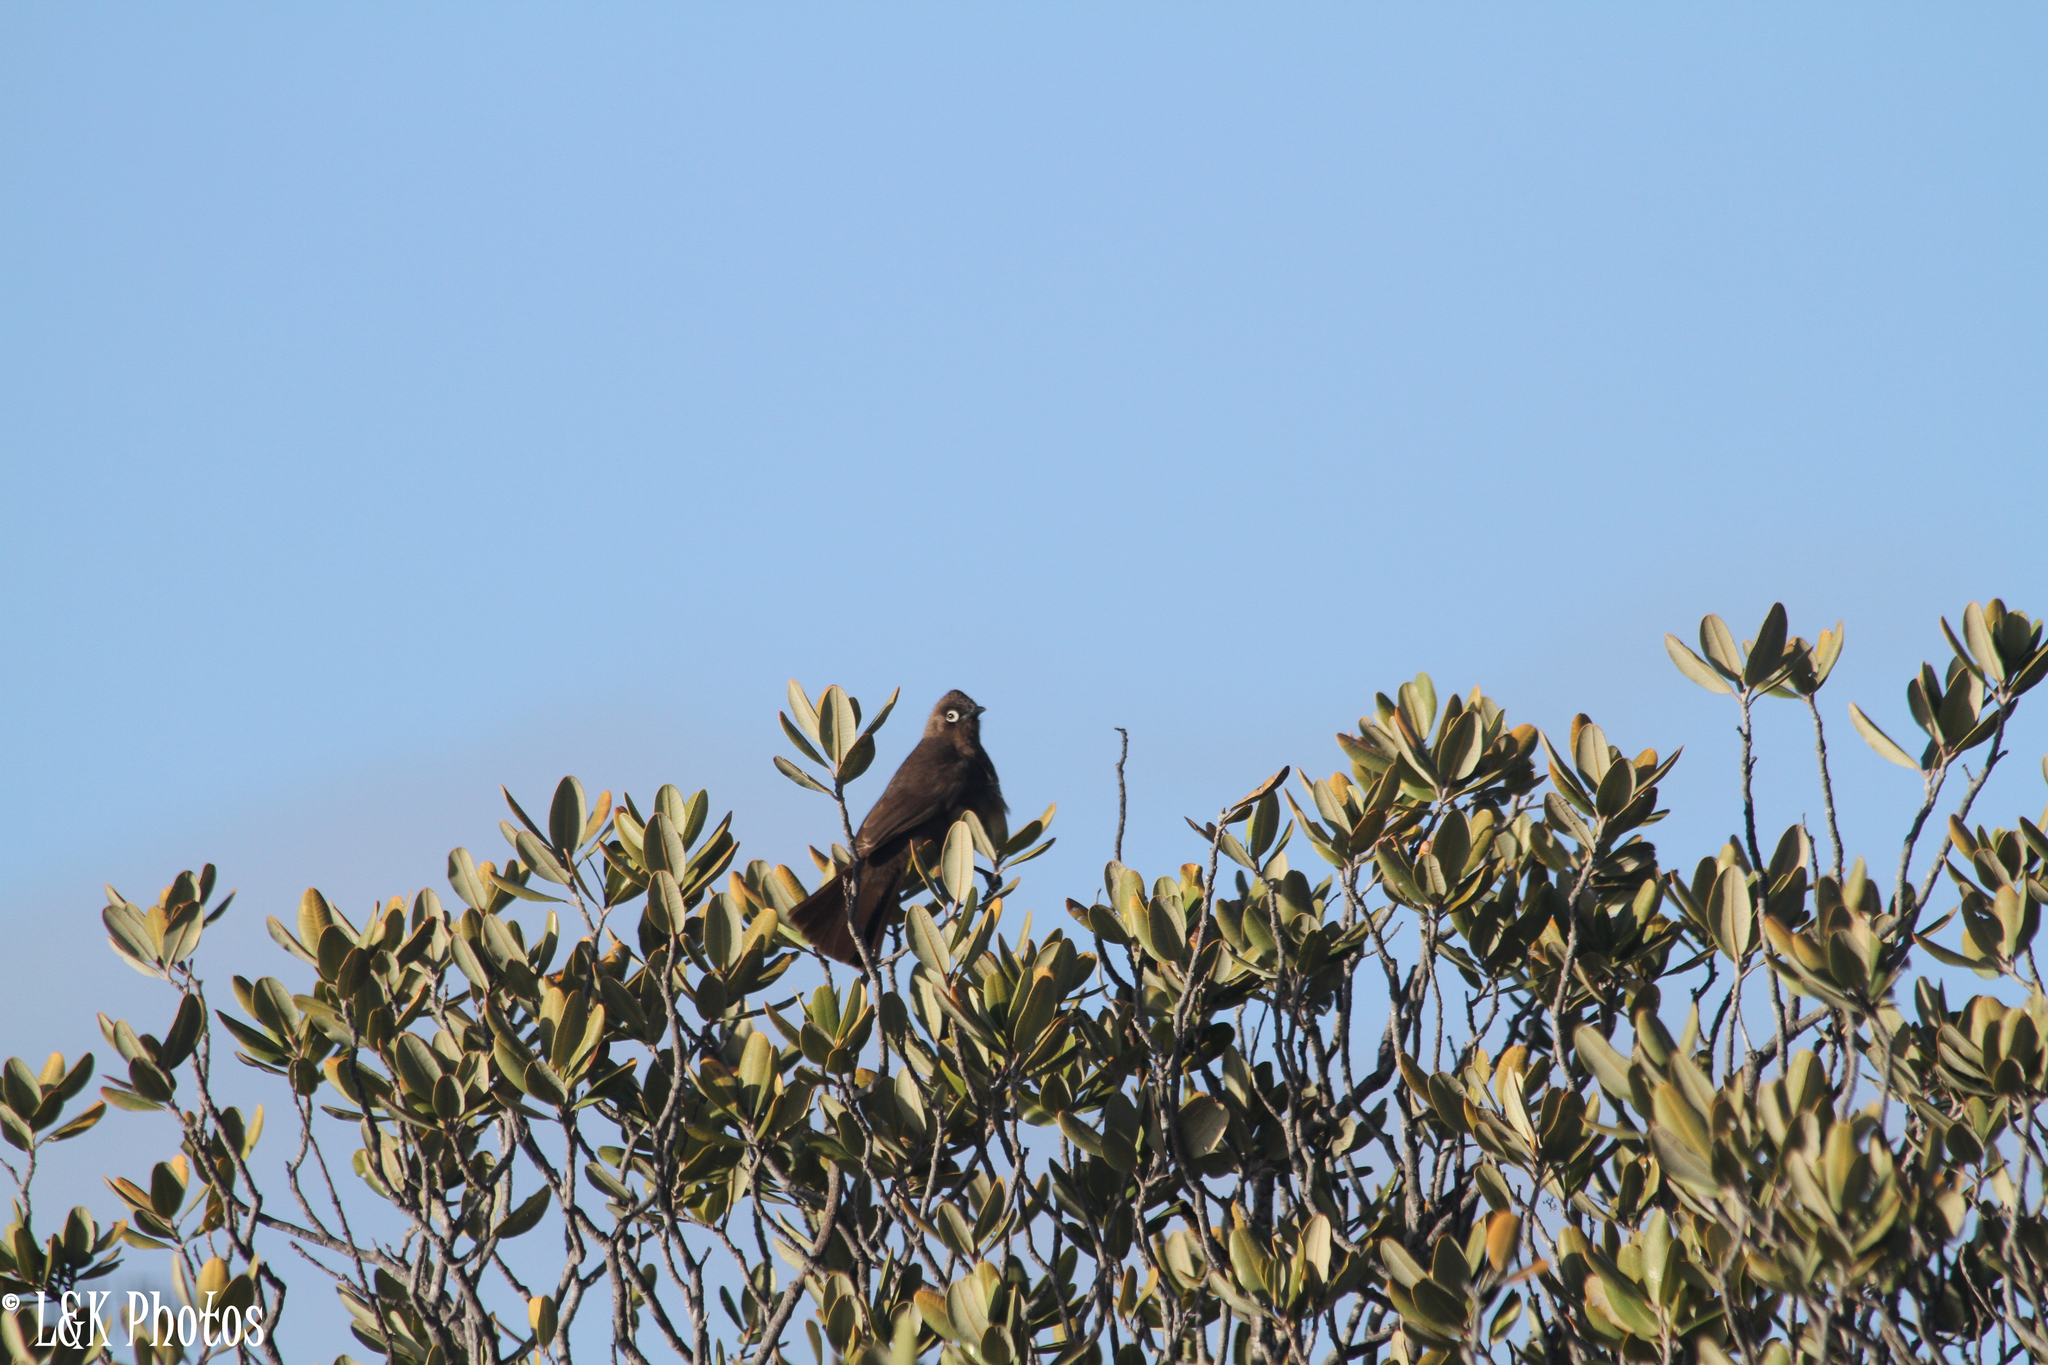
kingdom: Animalia
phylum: Chordata
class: Aves
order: Passeriformes
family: Pycnonotidae
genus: Pycnonotus
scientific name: Pycnonotus capensis
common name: Cape bulbul
